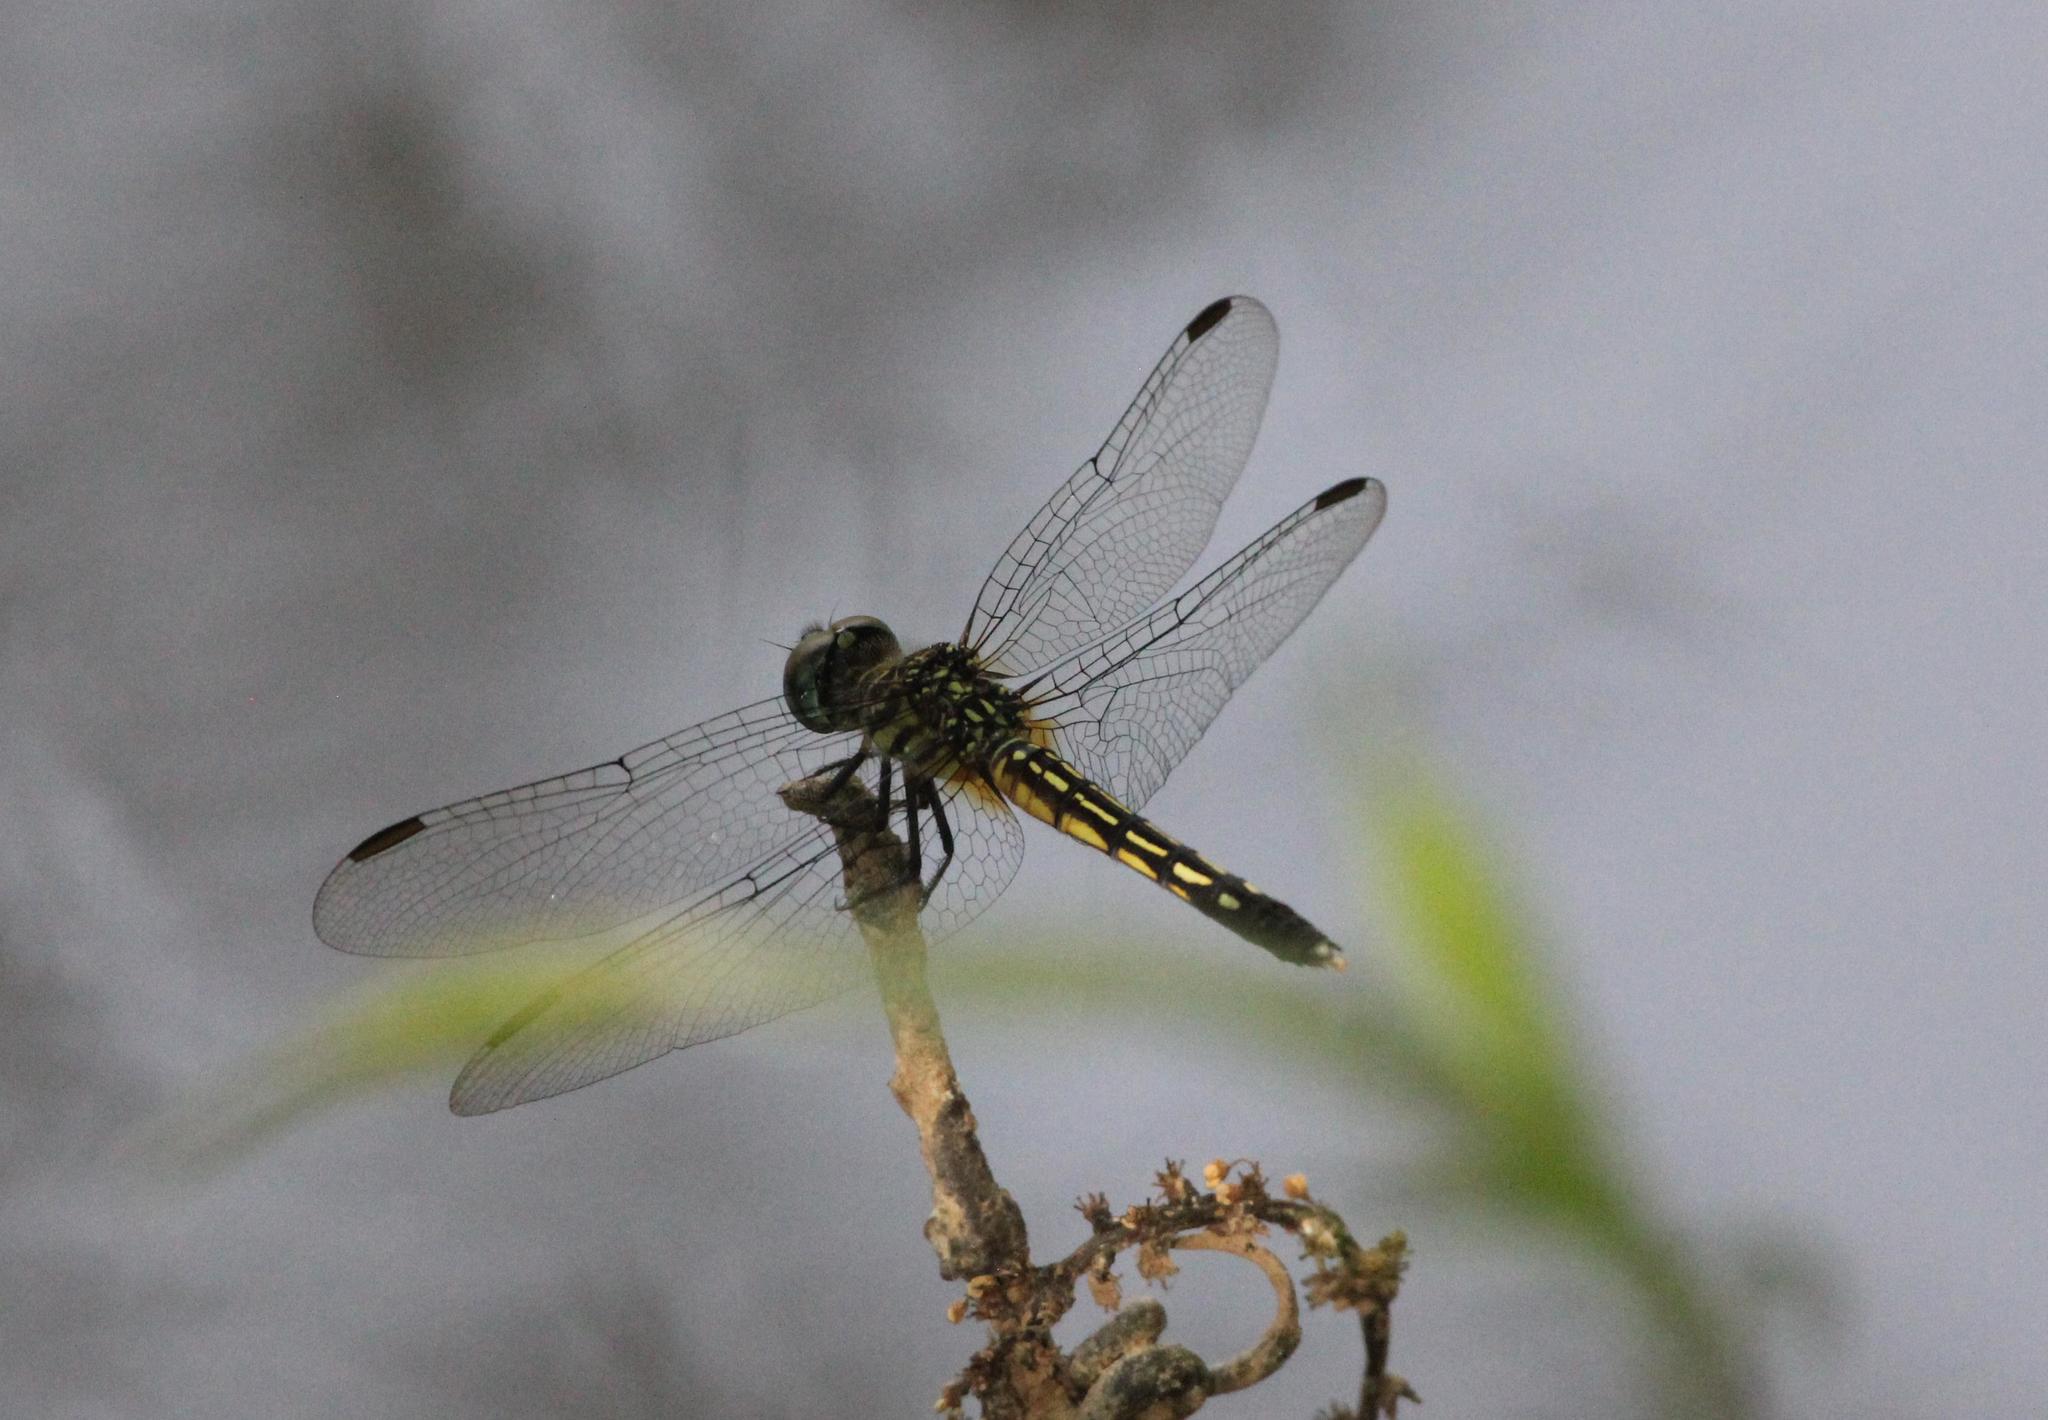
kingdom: Animalia
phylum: Arthropoda
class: Insecta
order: Odonata
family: Libellulidae
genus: Pachydiplax
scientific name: Pachydiplax longipennis
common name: Blue dasher
